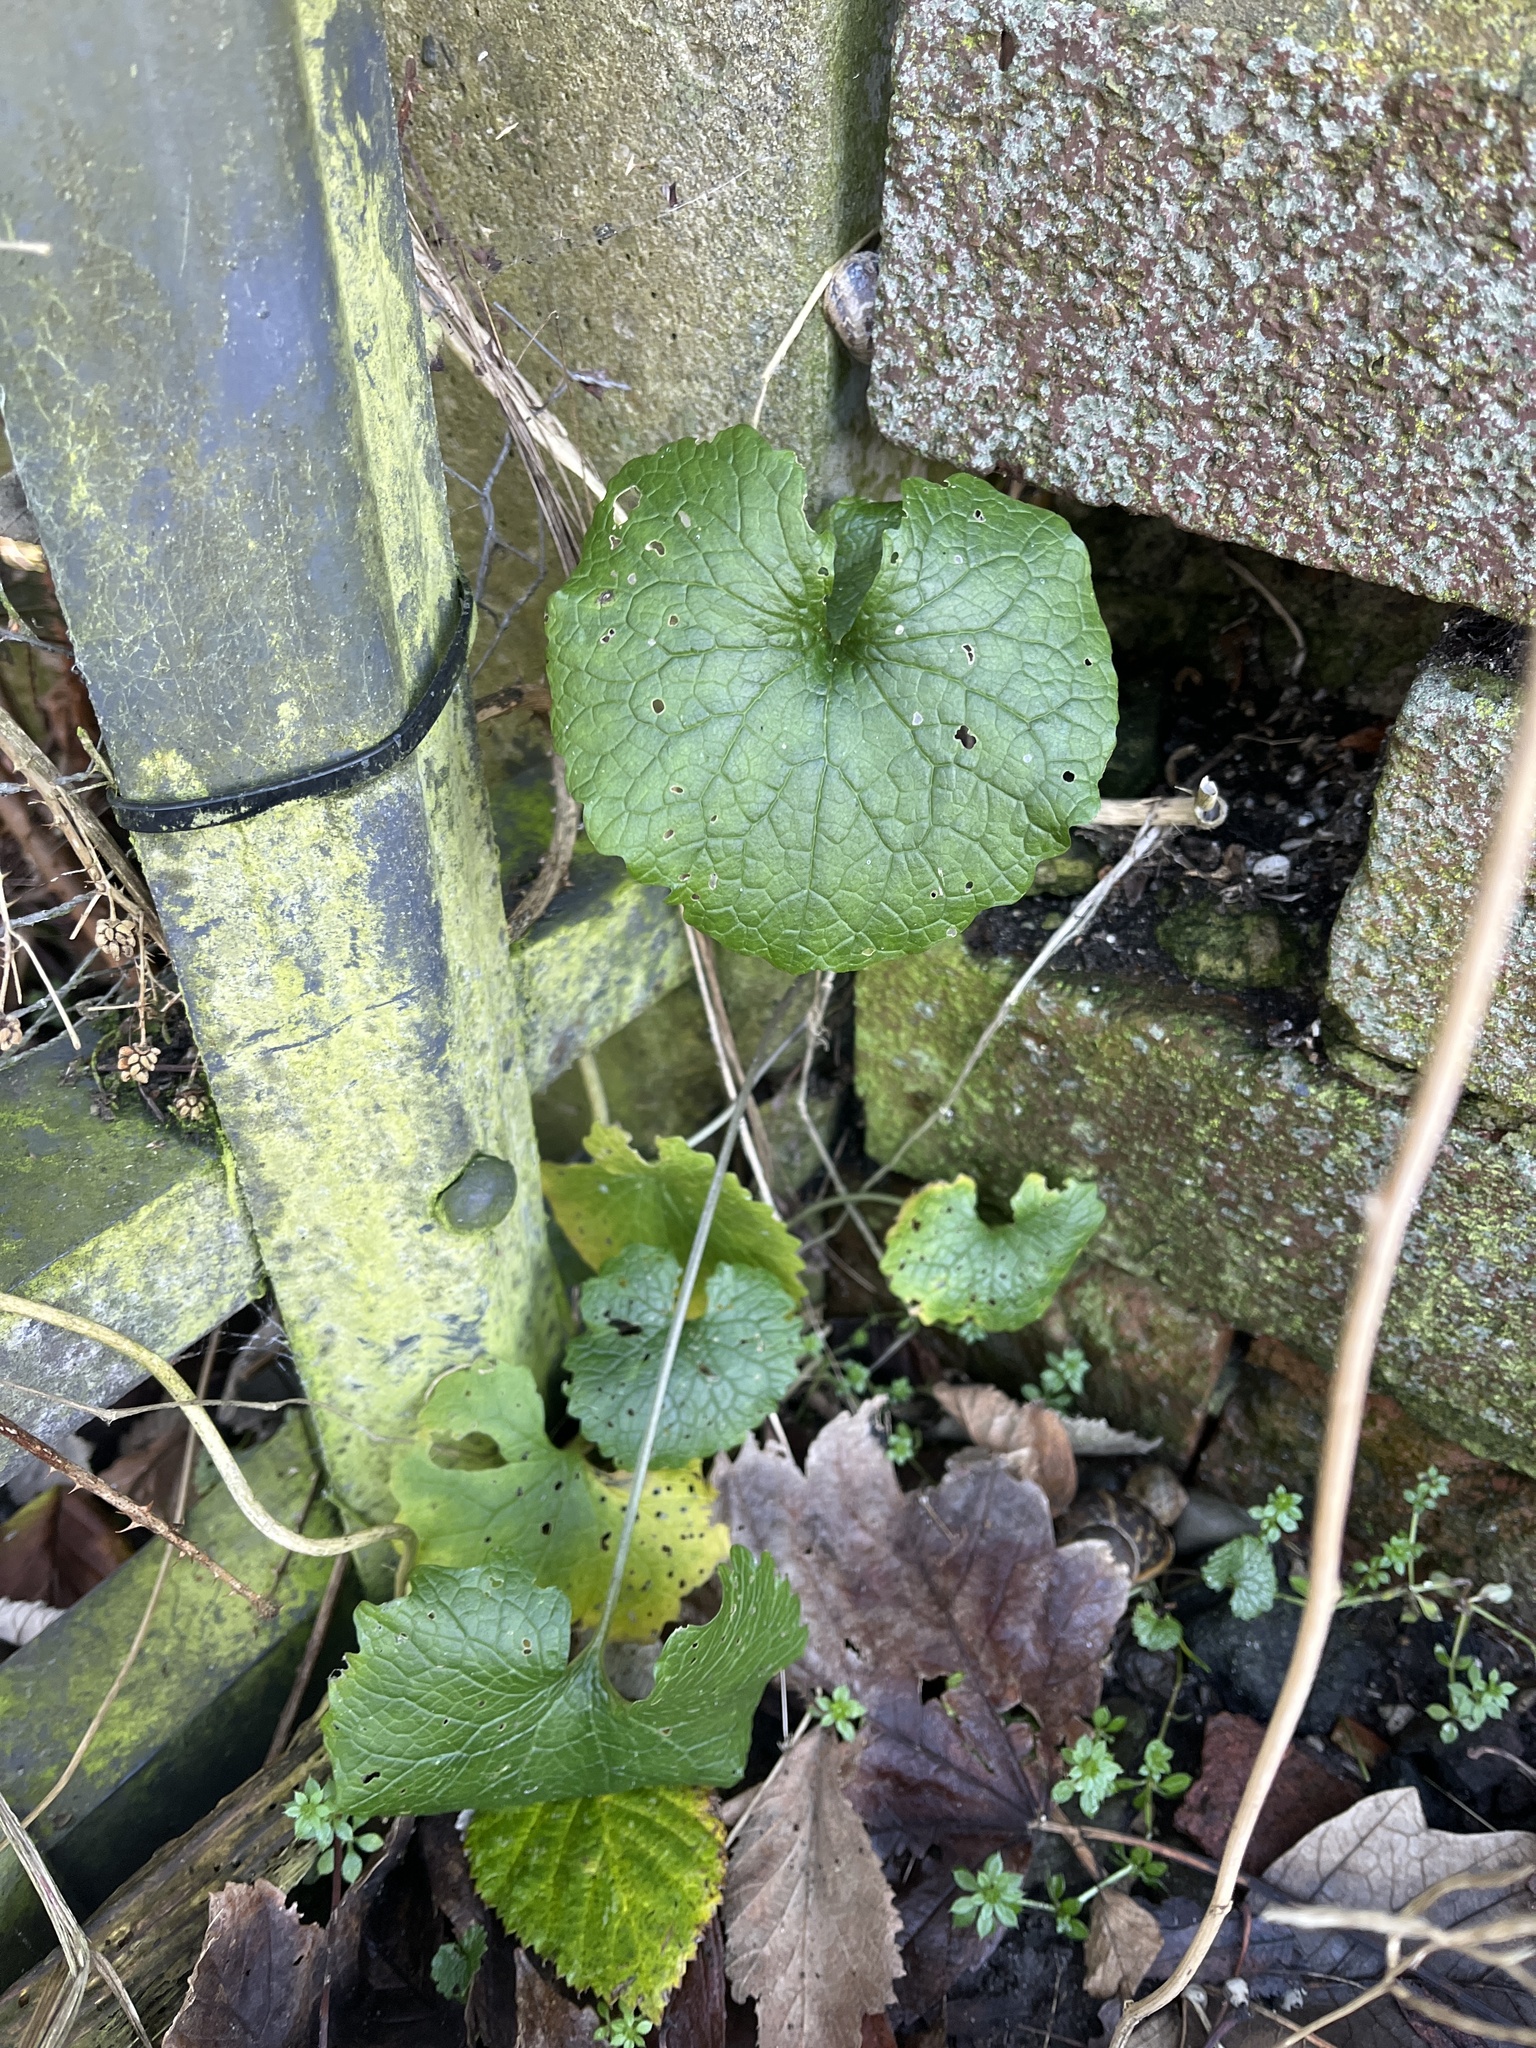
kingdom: Plantae
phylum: Tracheophyta
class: Magnoliopsida
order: Brassicales
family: Brassicaceae
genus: Alliaria
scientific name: Alliaria petiolata
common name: Garlic mustard
